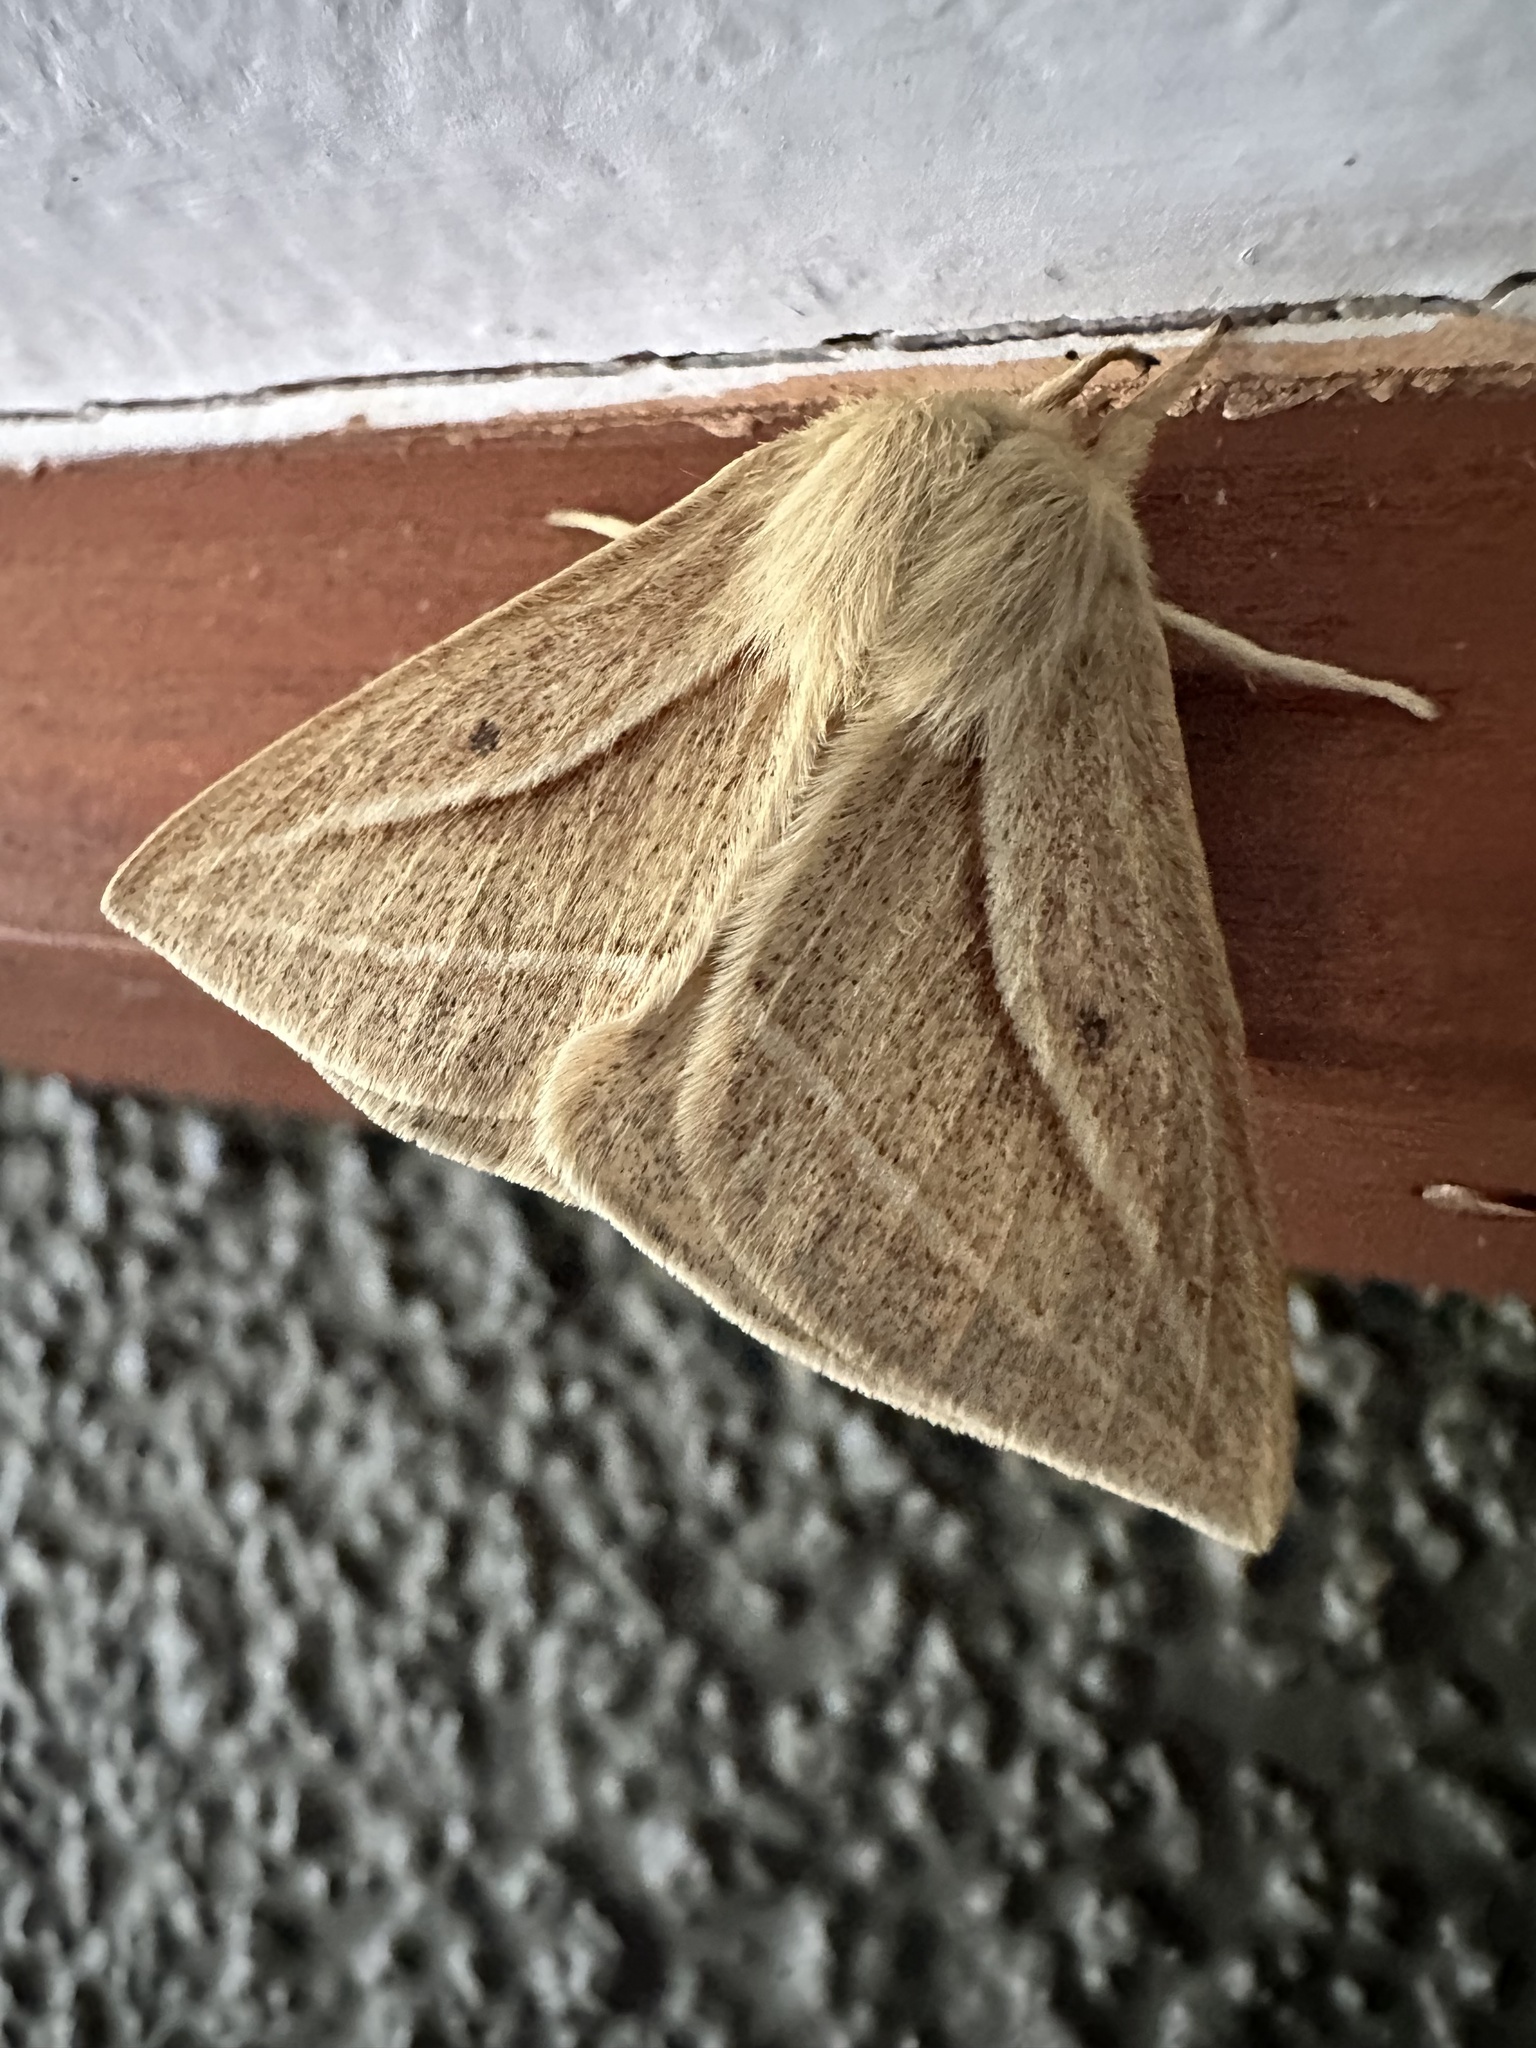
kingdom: Animalia
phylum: Arthropoda
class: Insecta
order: Lepidoptera
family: Saturniidae
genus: Cinommata
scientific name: Cinommata bistrigata
